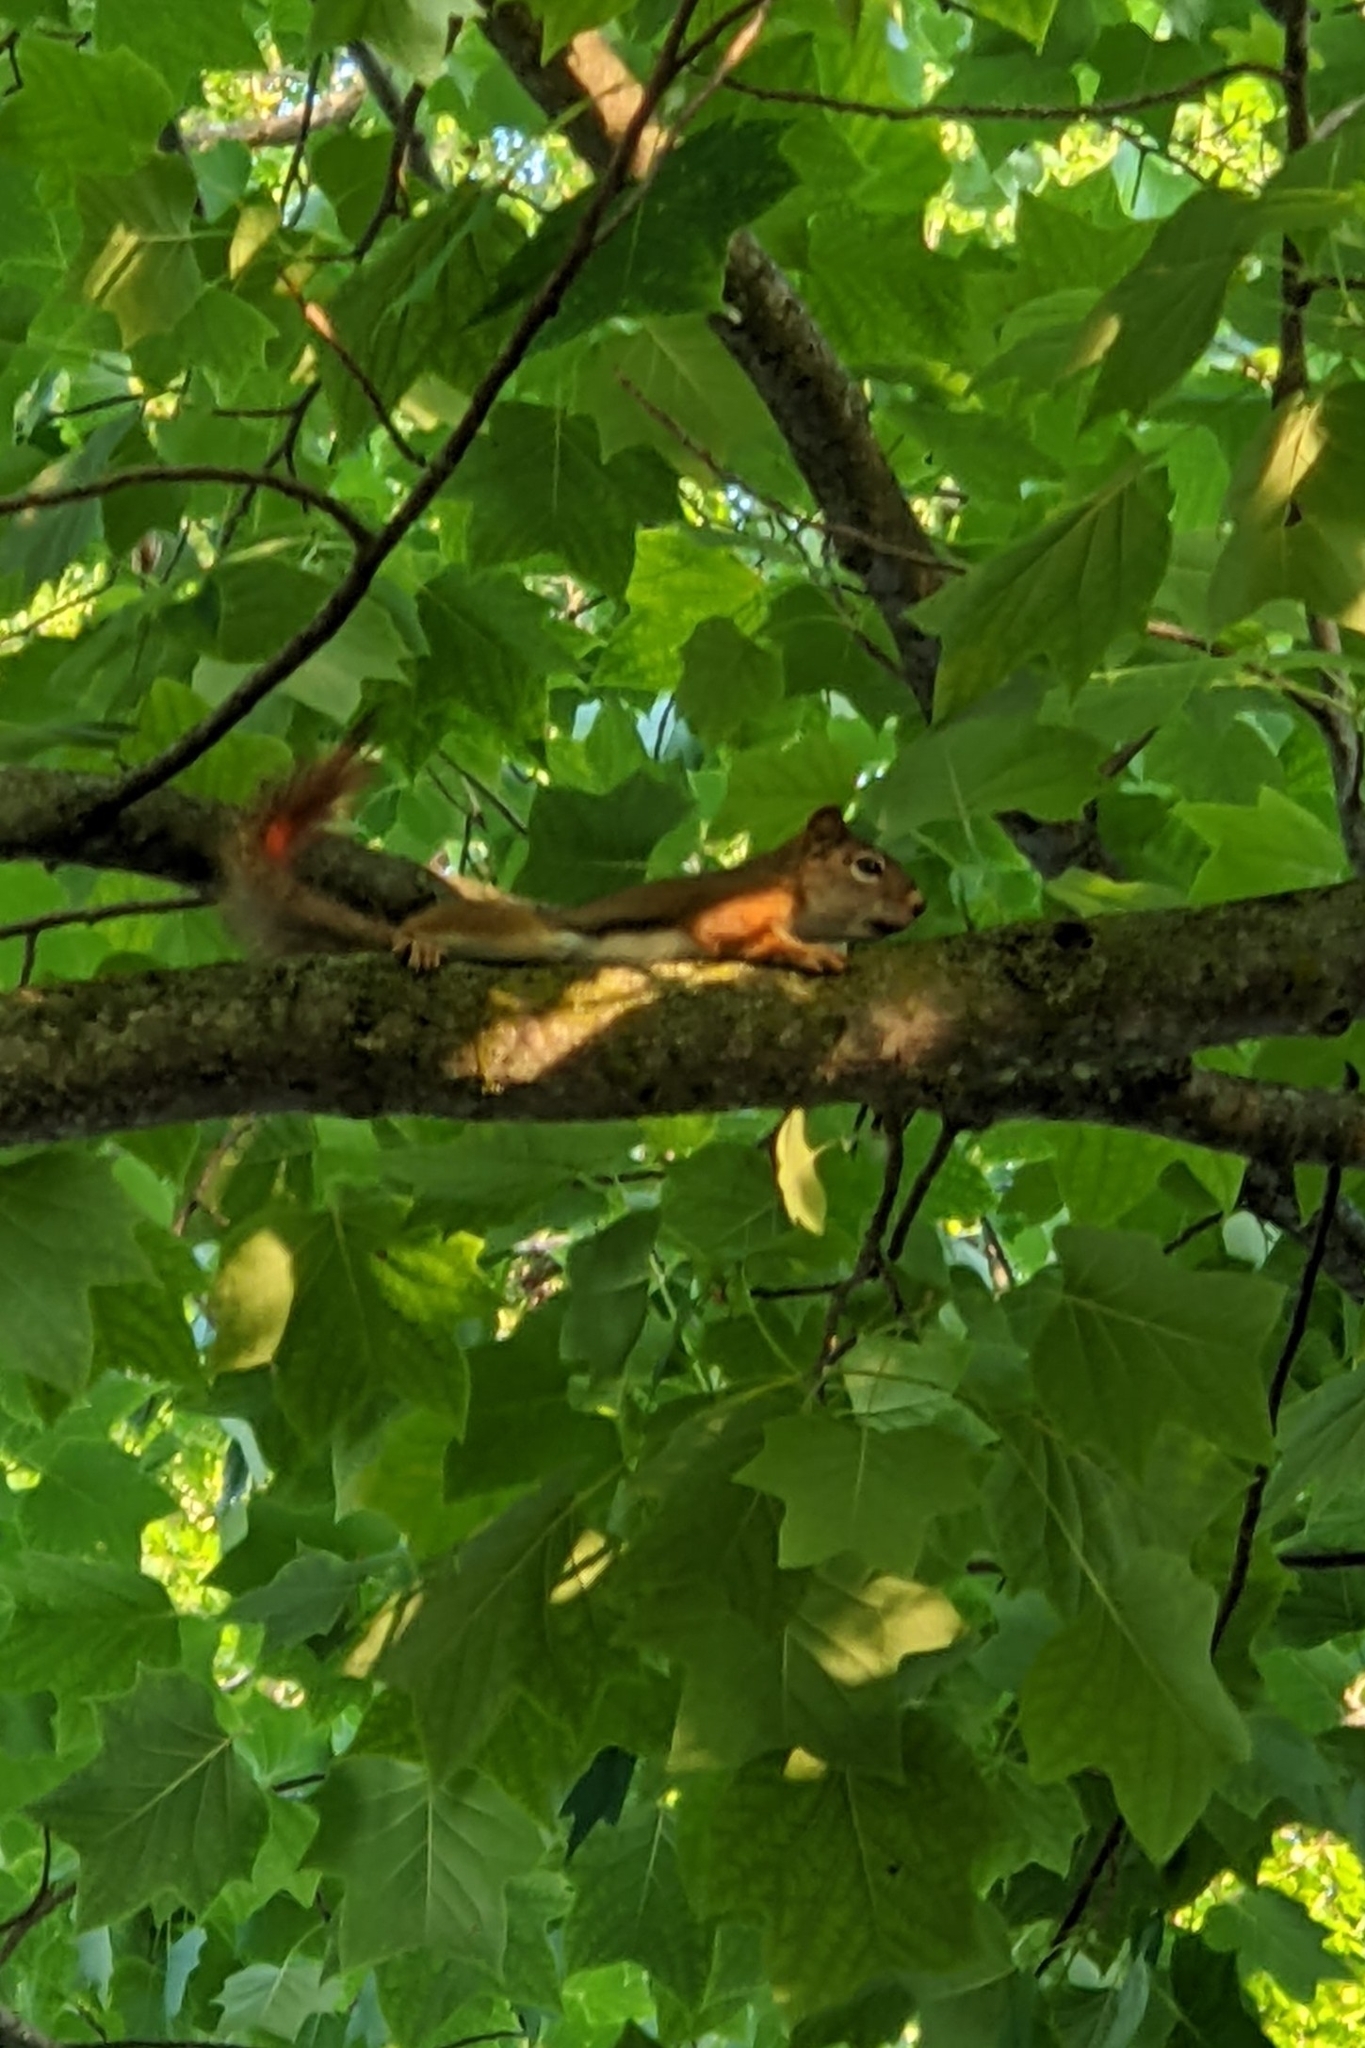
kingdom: Animalia
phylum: Chordata
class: Mammalia
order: Rodentia
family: Sciuridae
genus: Tamiasciurus
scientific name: Tamiasciurus hudsonicus
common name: Red squirrel
